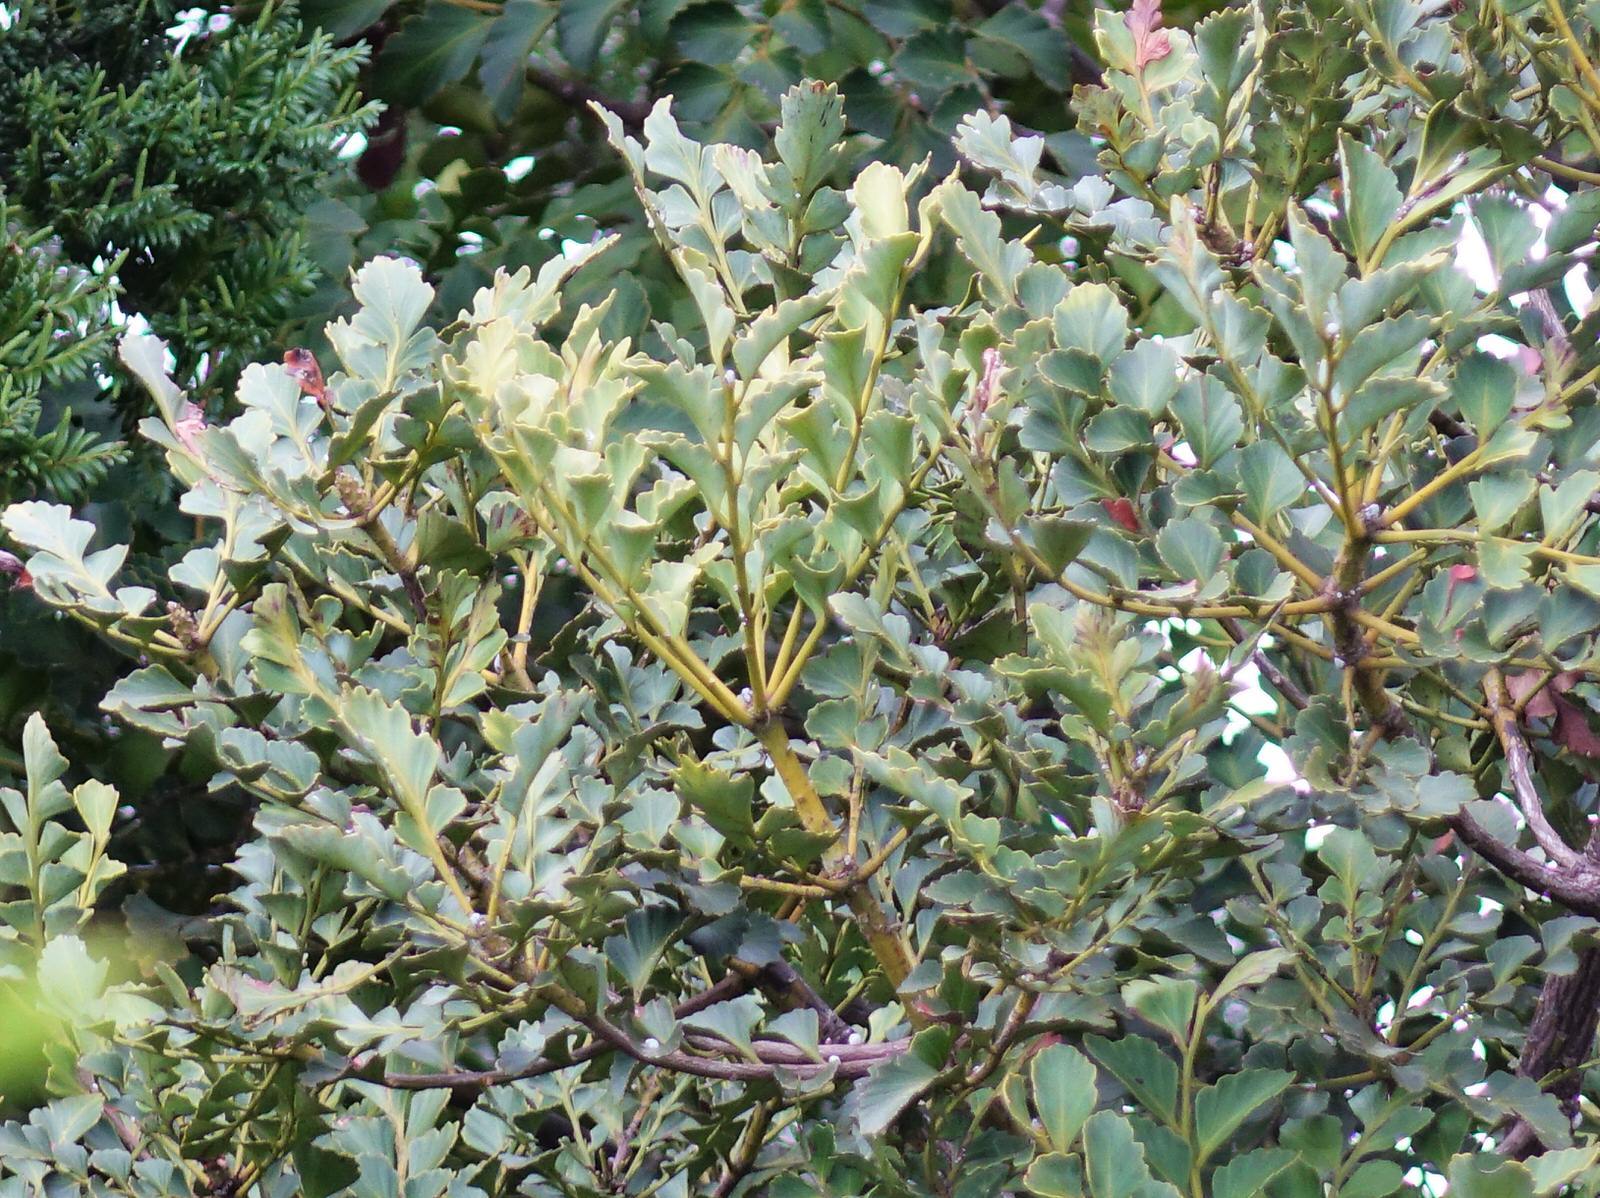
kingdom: Plantae
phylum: Tracheophyta
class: Pinopsida
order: Pinales
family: Phyllocladaceae
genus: Phyllocladus
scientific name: Phyllocladus toatoa
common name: Celery-top pine
